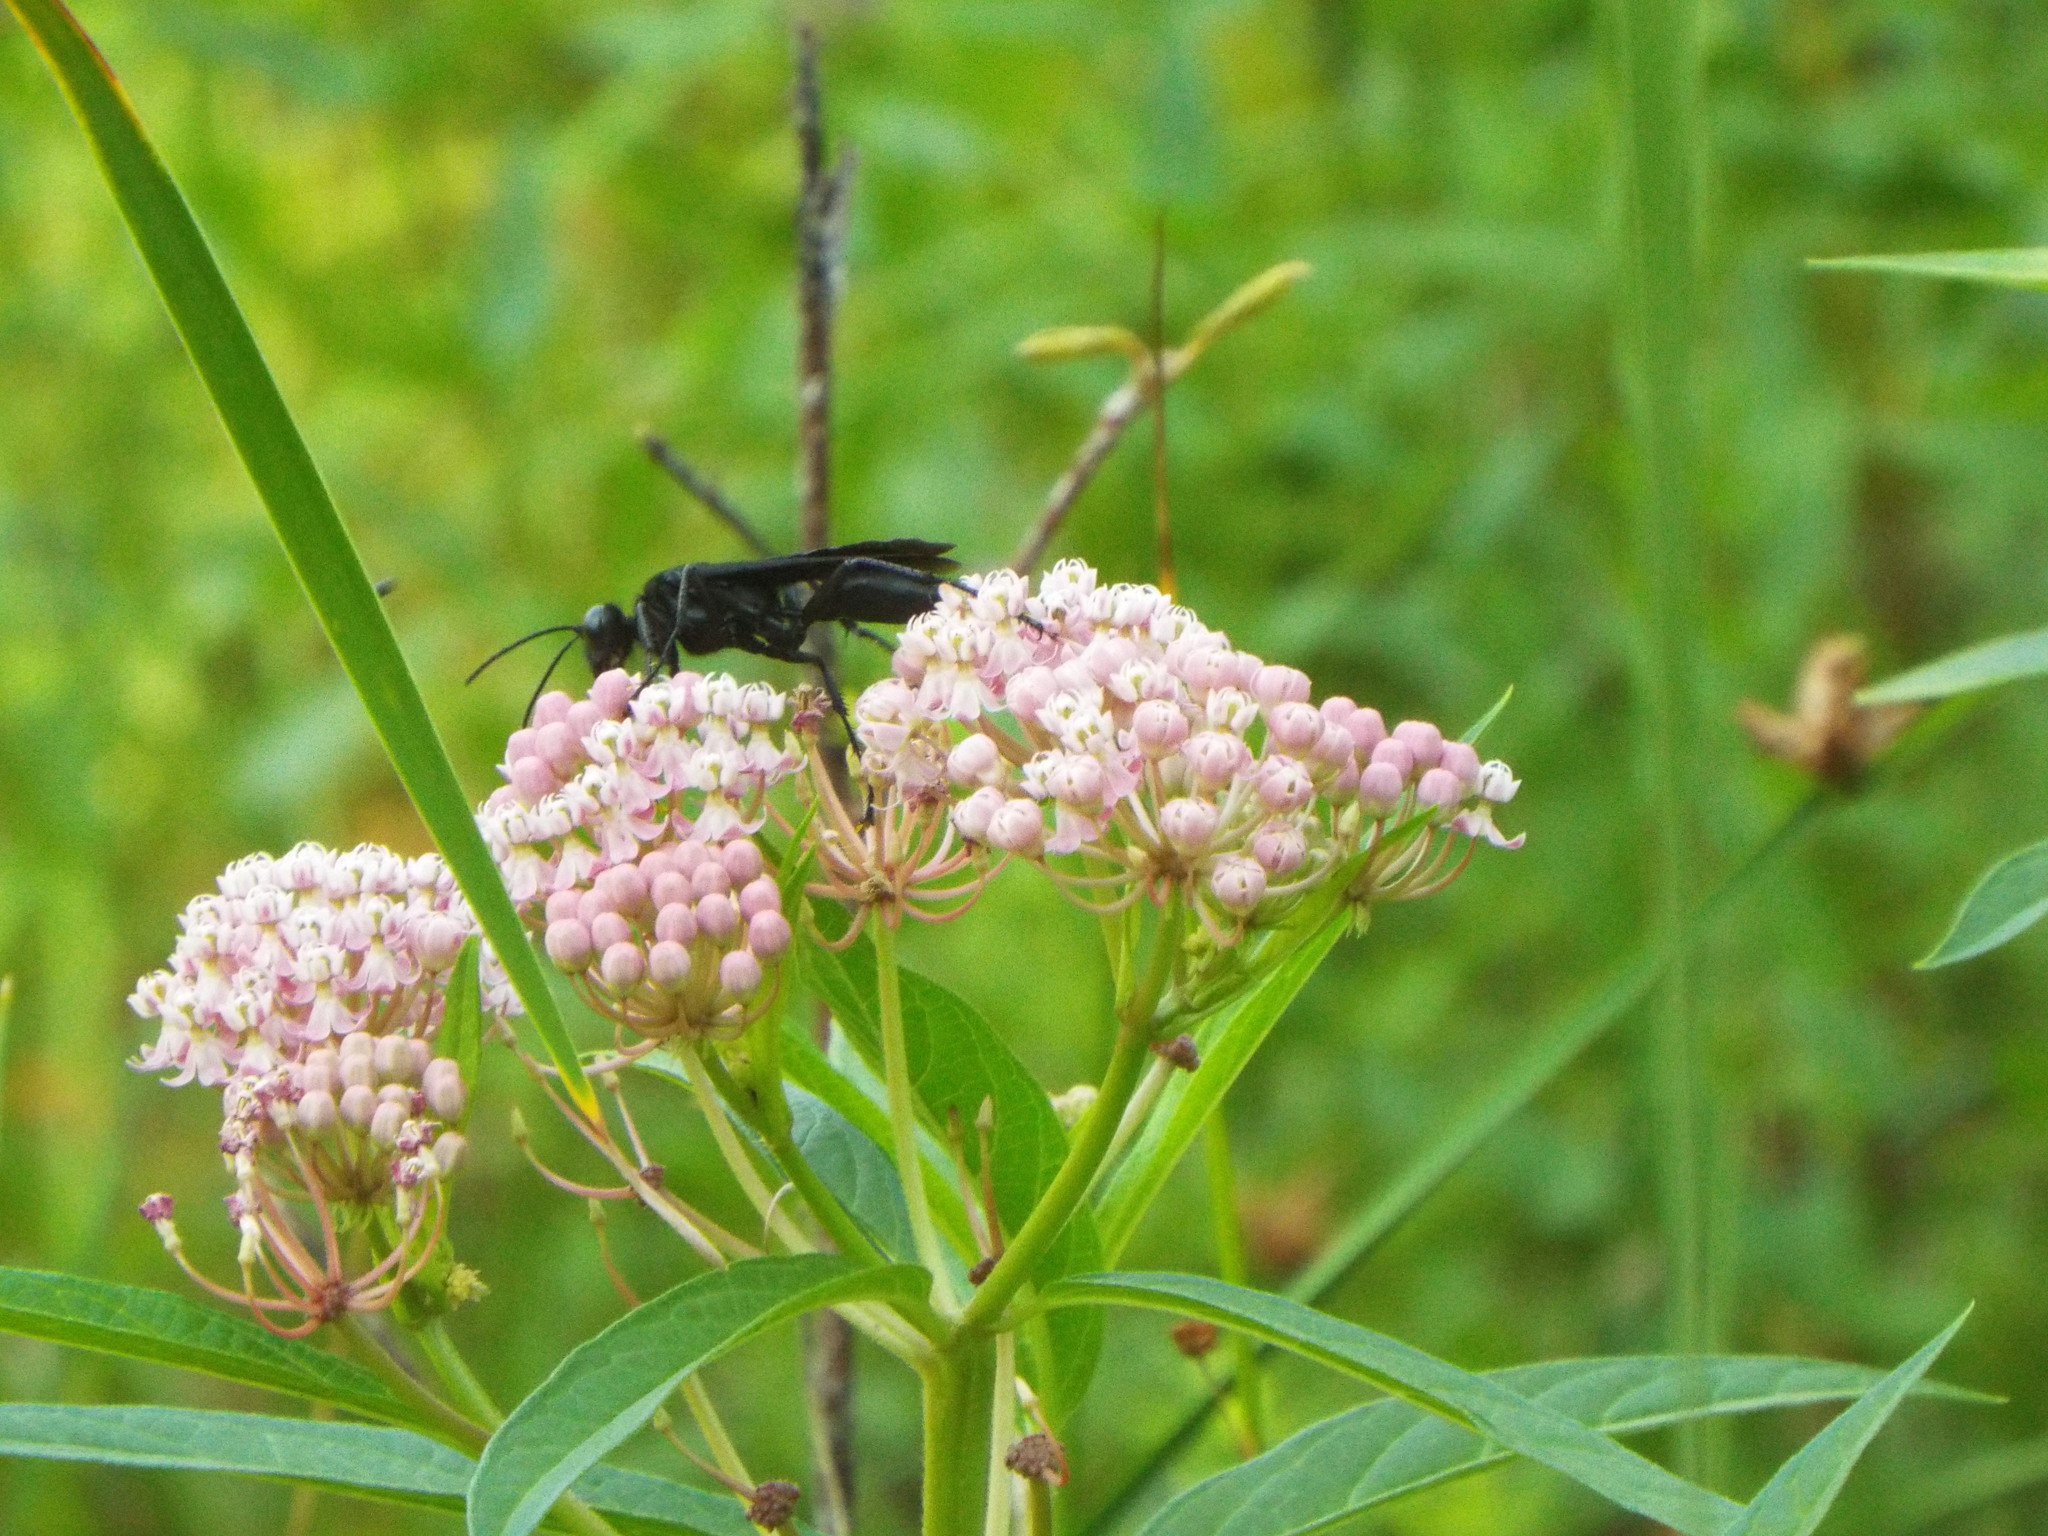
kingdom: Animalia
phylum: Arthropoda
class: Insecta
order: Hymenoptera
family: Sphecidae
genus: Sphex
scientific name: Sphex pensylvanicus
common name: Great black digger wasp
